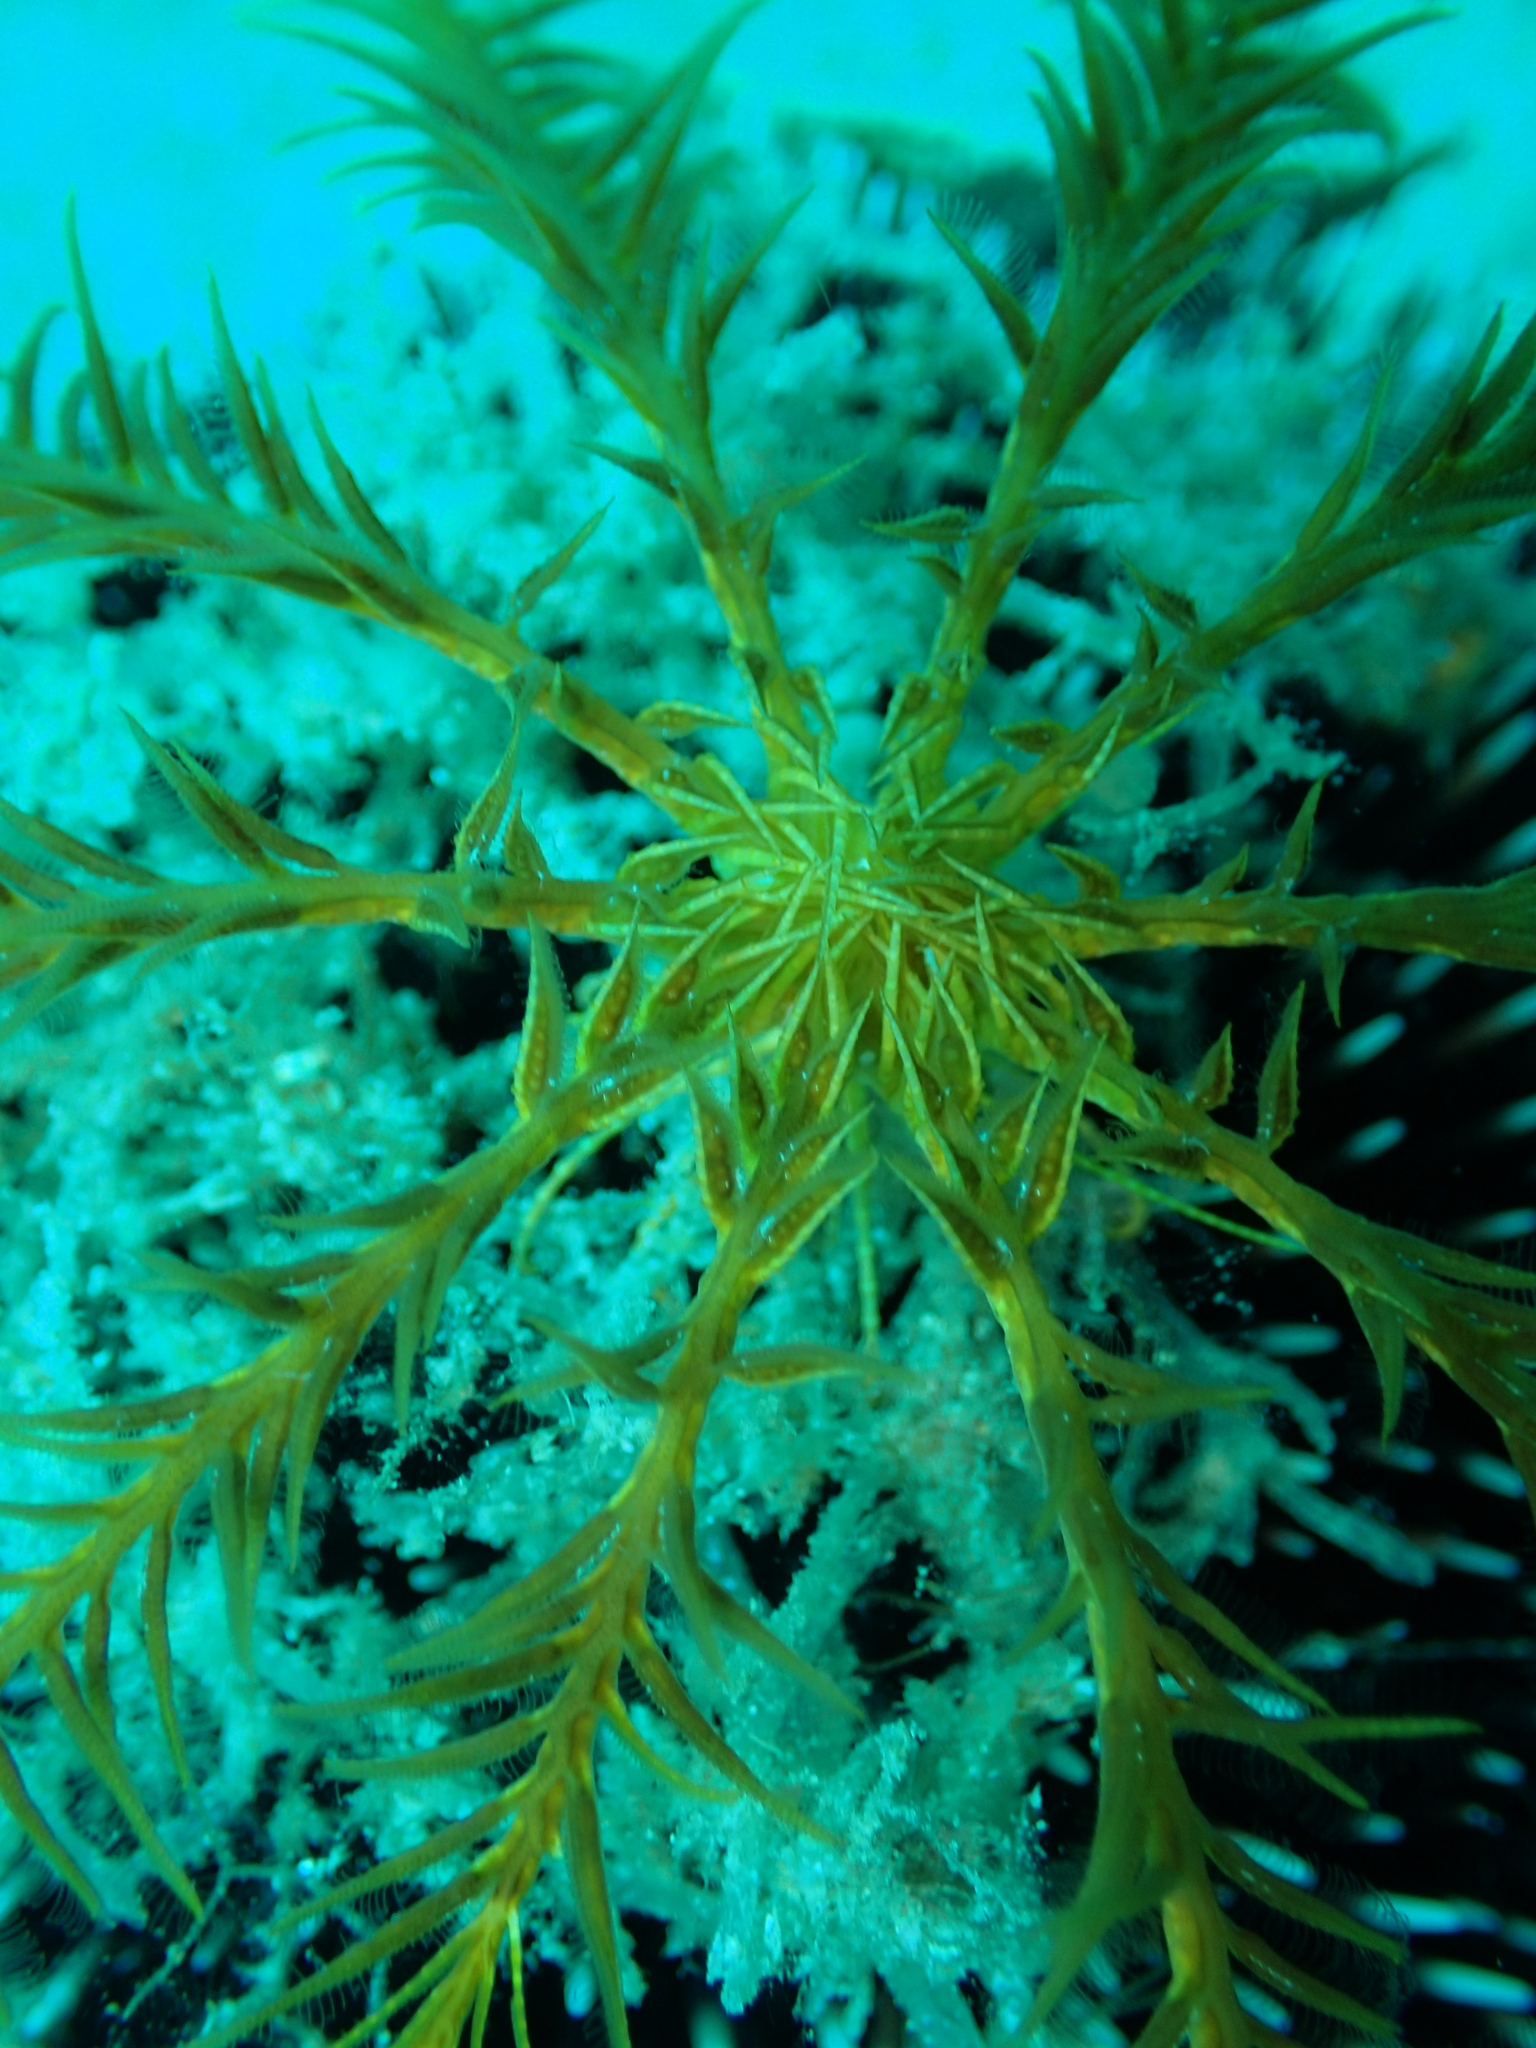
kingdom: Animalia
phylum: Echinodermata
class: Crinoidea
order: Comatulida
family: Antedonidae
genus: Antedon
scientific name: Antedon mediterranea
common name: Feather star
